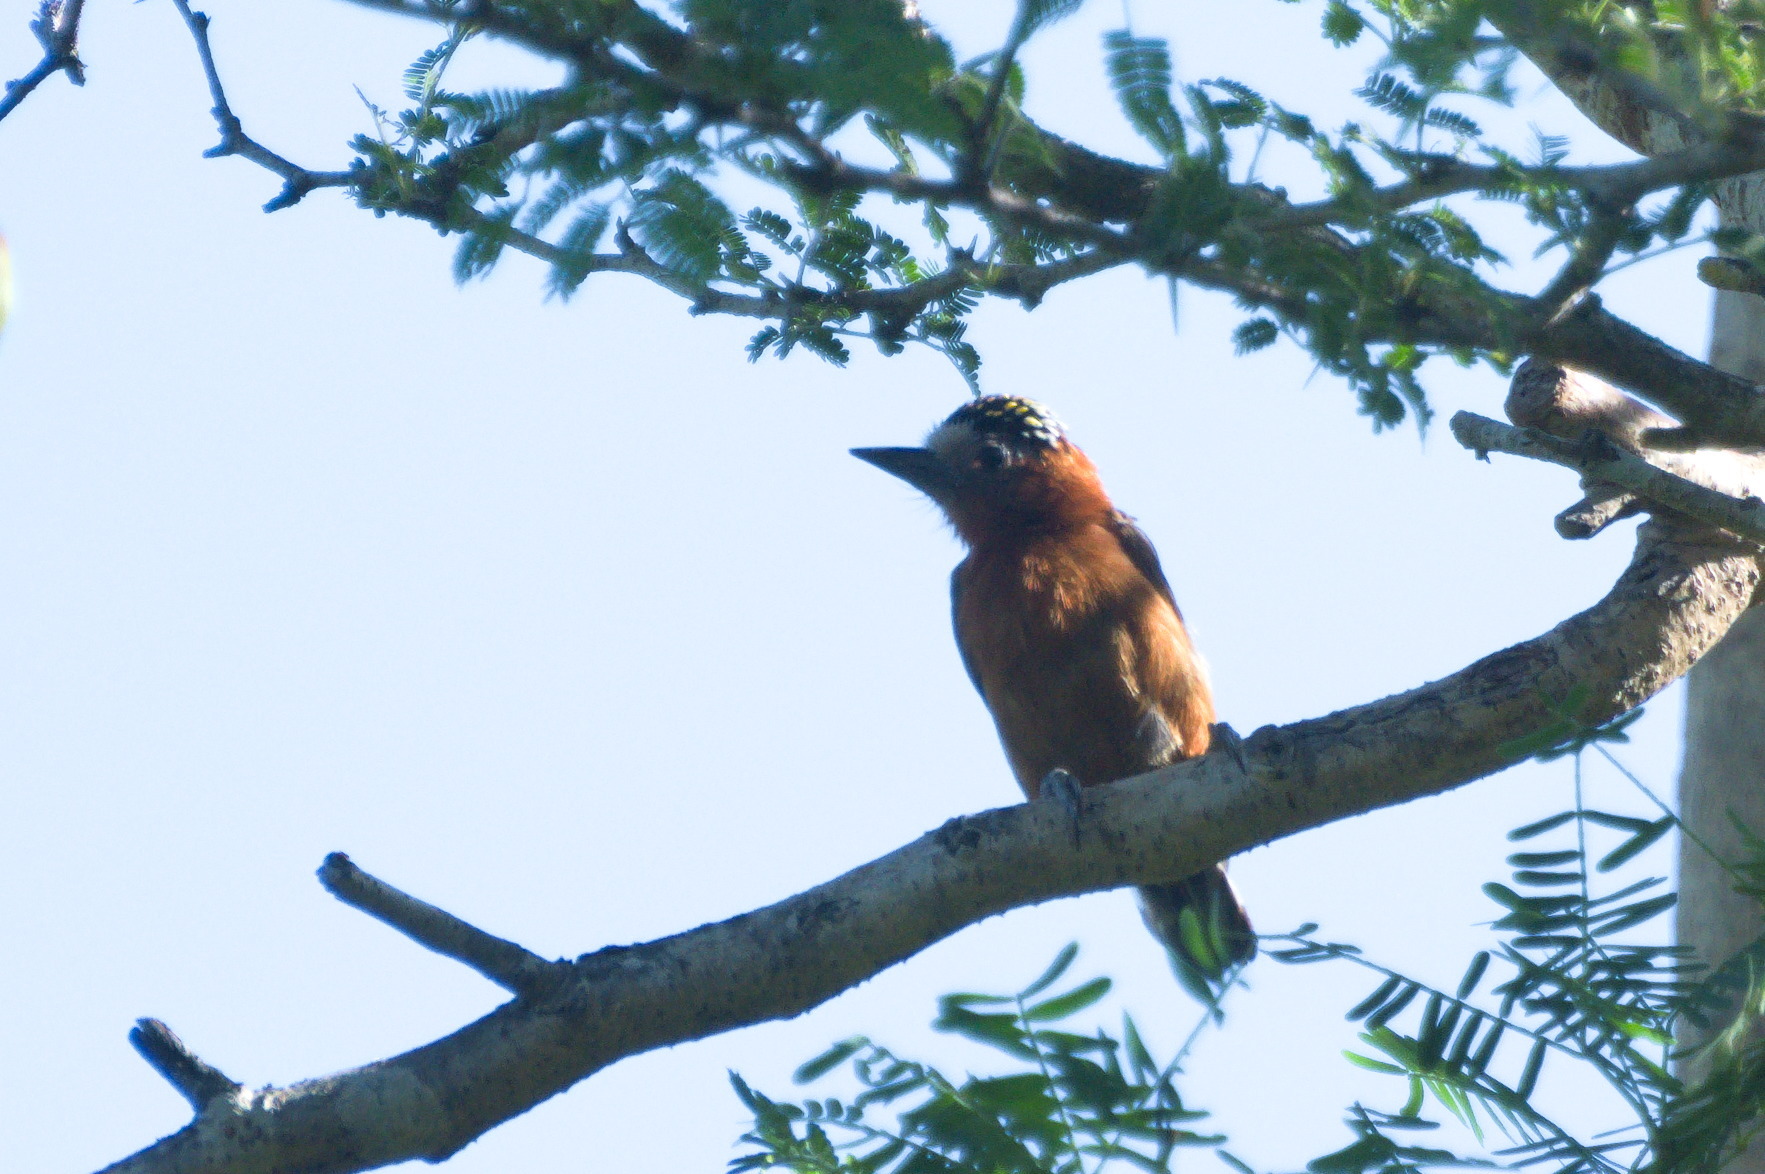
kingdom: Animalia
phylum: Chordata
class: Aves
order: Piciformes
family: Picidae
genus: Picumnus
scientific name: Picumnus cinnamomeus
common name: Chestnut piculet
